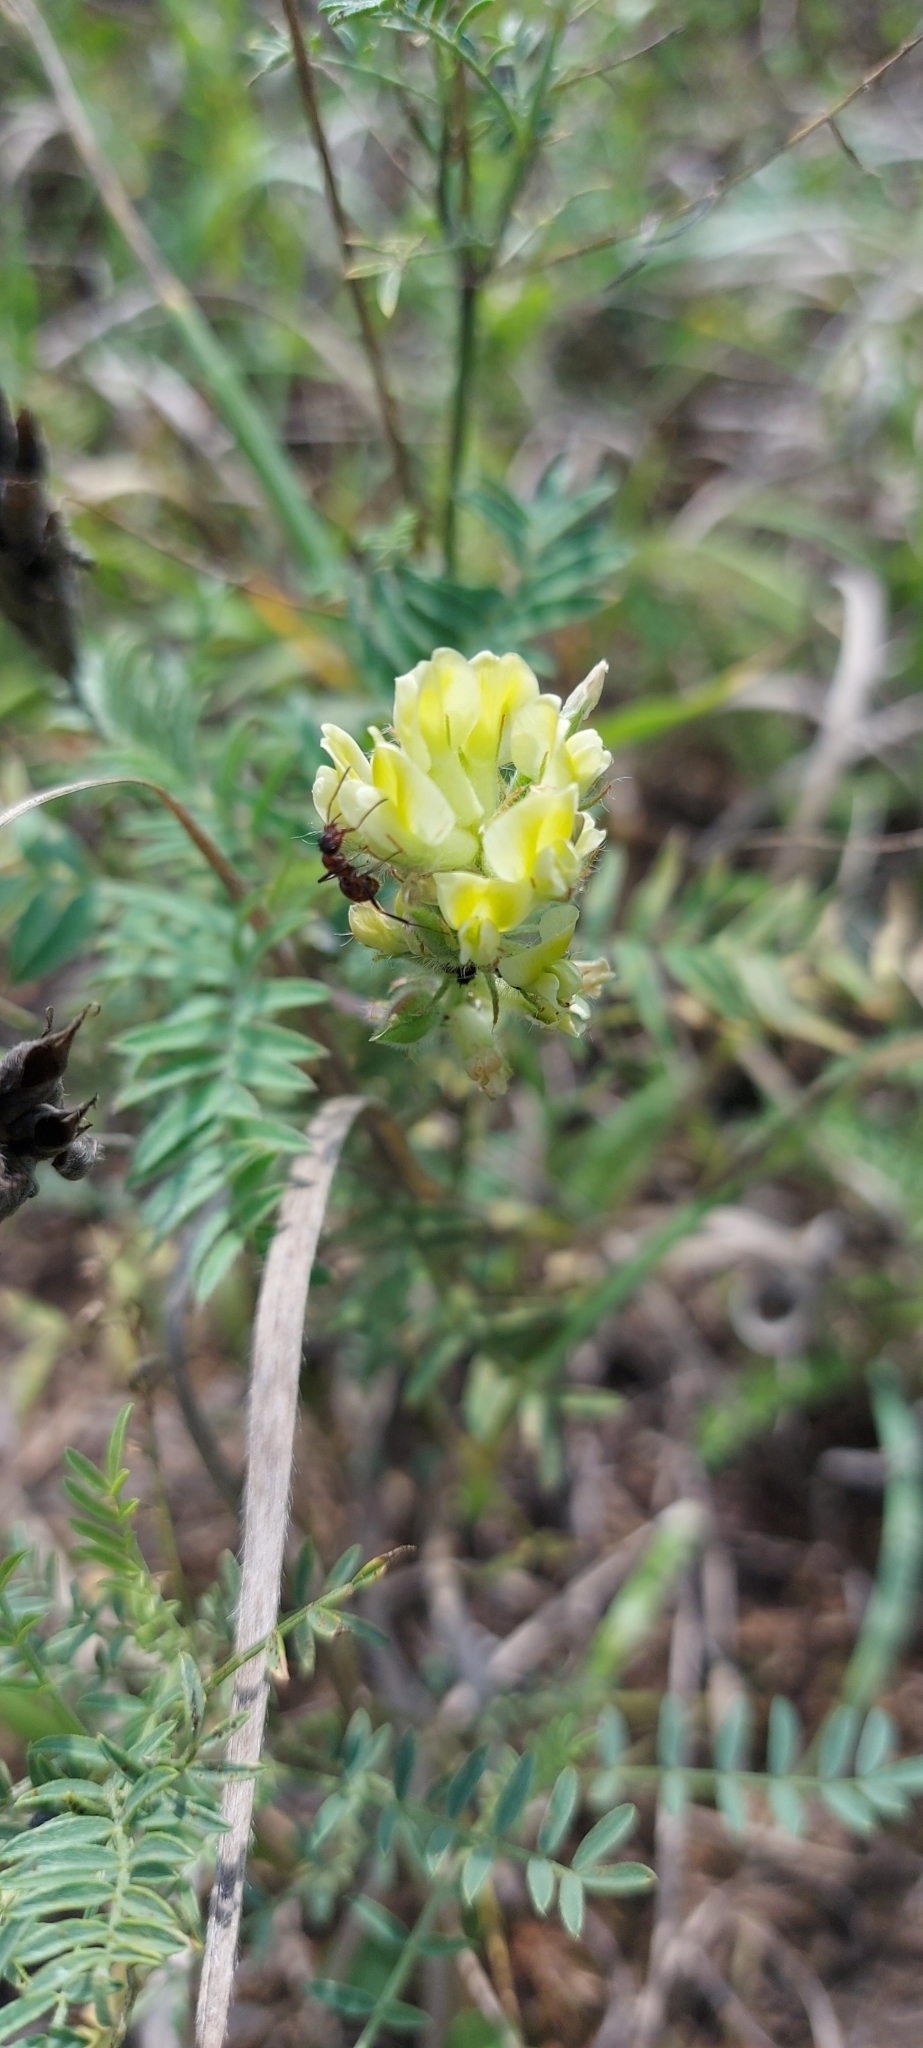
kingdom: Plantae
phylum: Tracheophyta
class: Magnoliopsida
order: Fabales
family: Fabaceae
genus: Oxytropis
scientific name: Oxytropis pilosa
